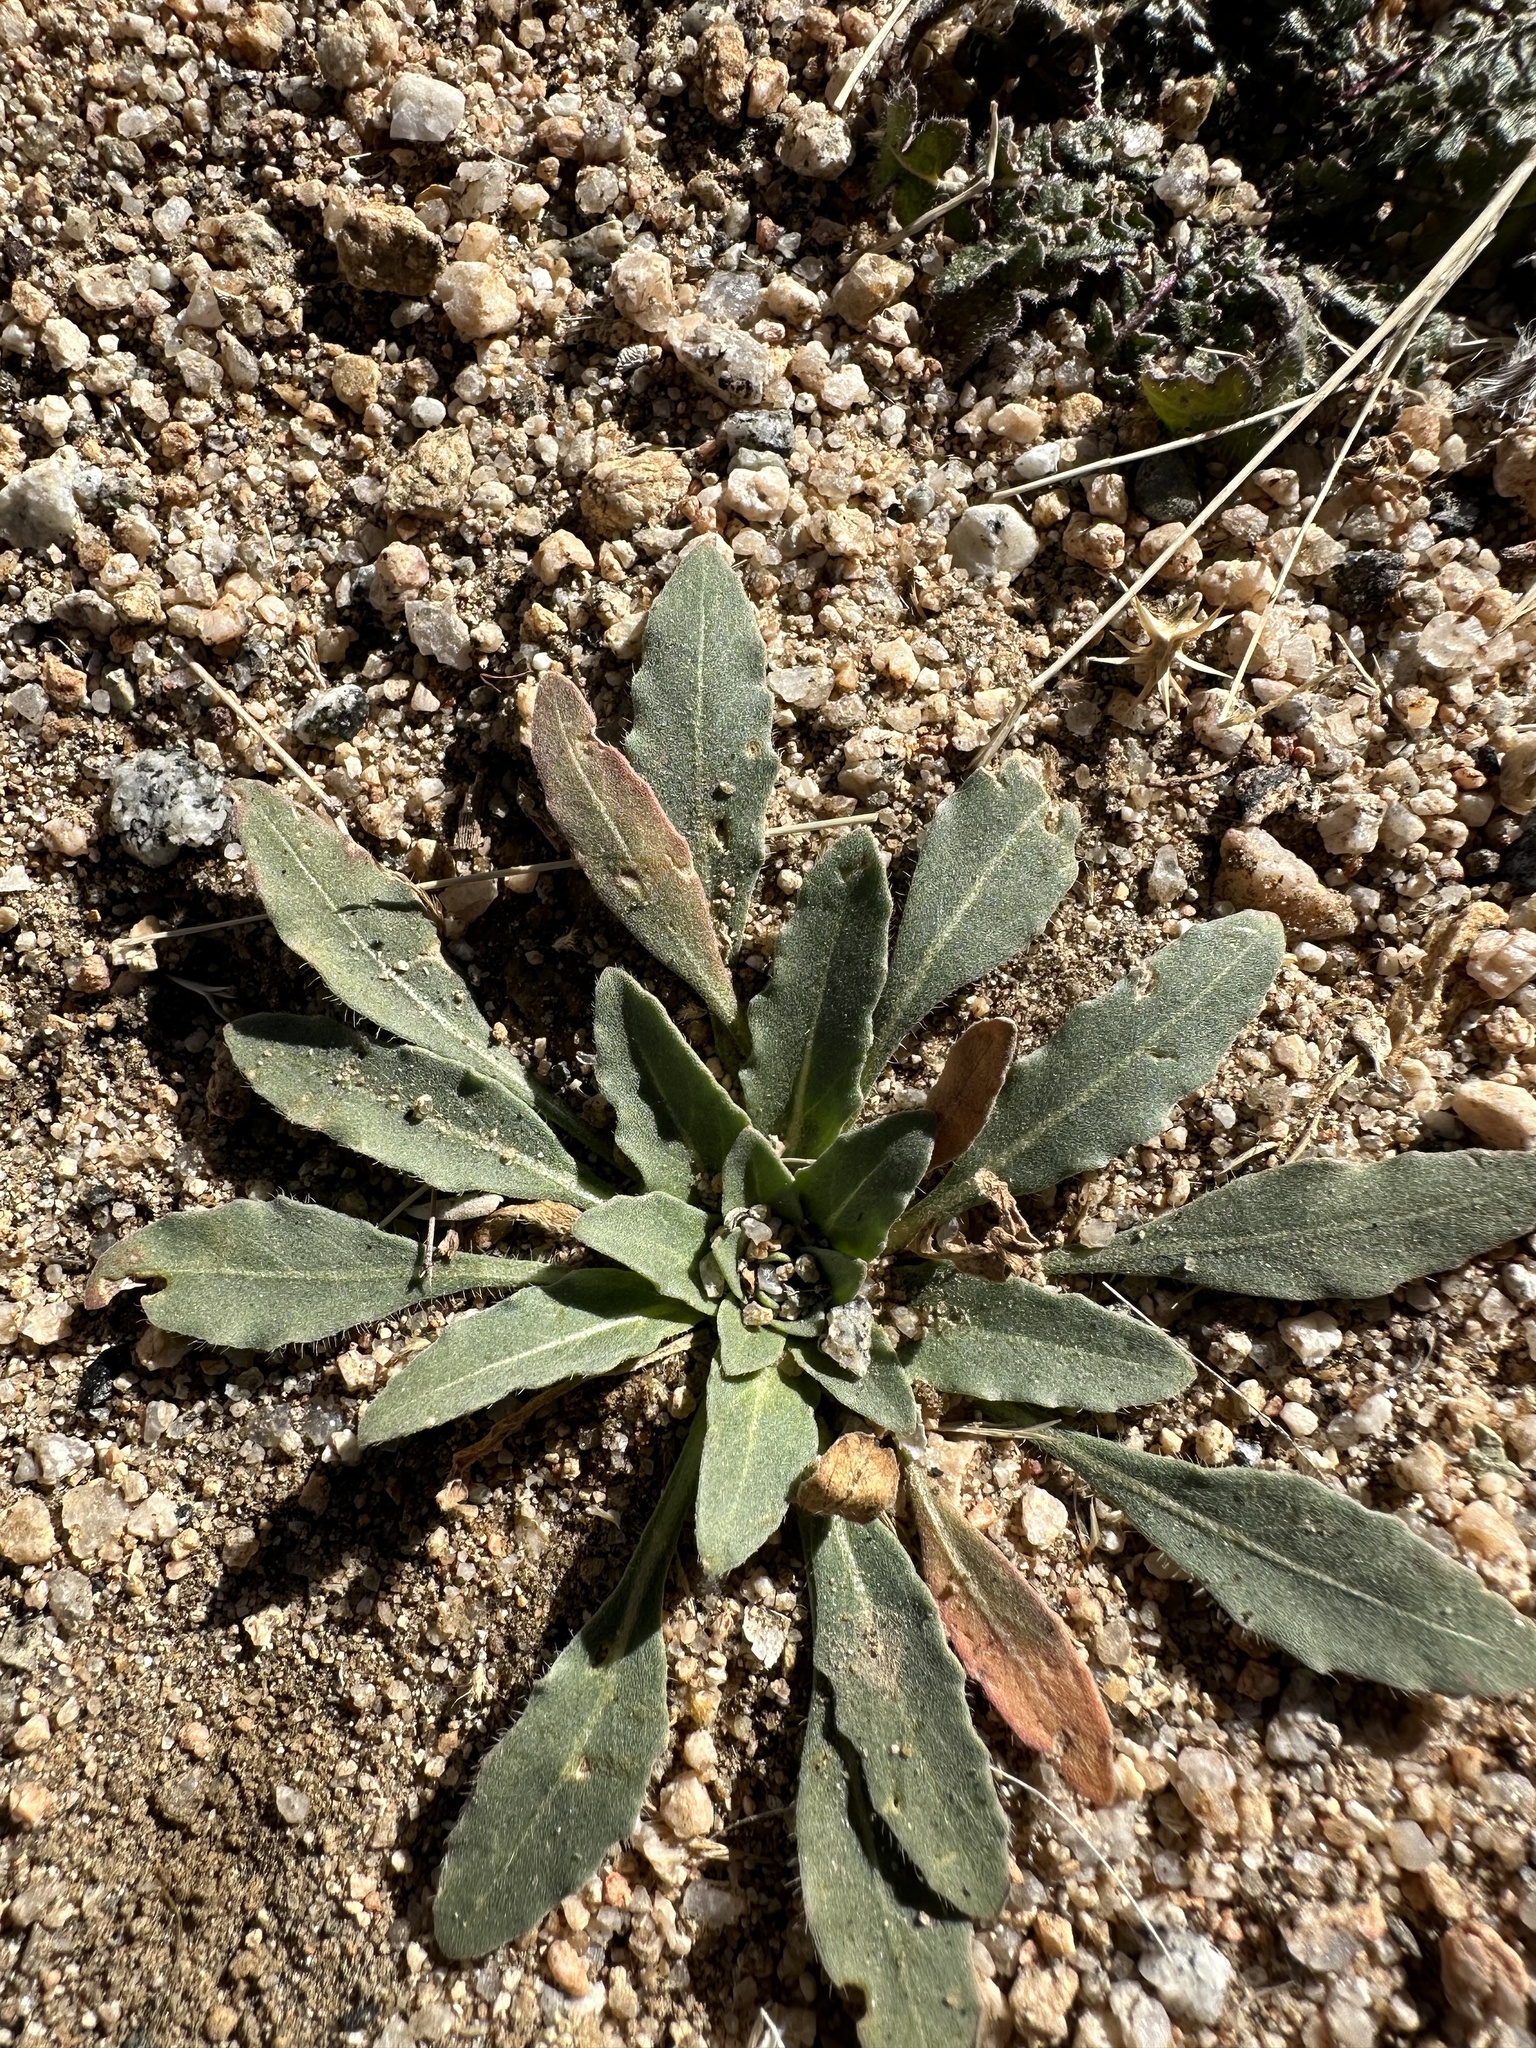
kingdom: Plantae
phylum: Tracheophyta
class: Magnoliopsida
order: Myrtales
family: Onagraceae
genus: Camissoniopsis
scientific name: Camissoniopsis micrantha
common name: Miniature suncup
